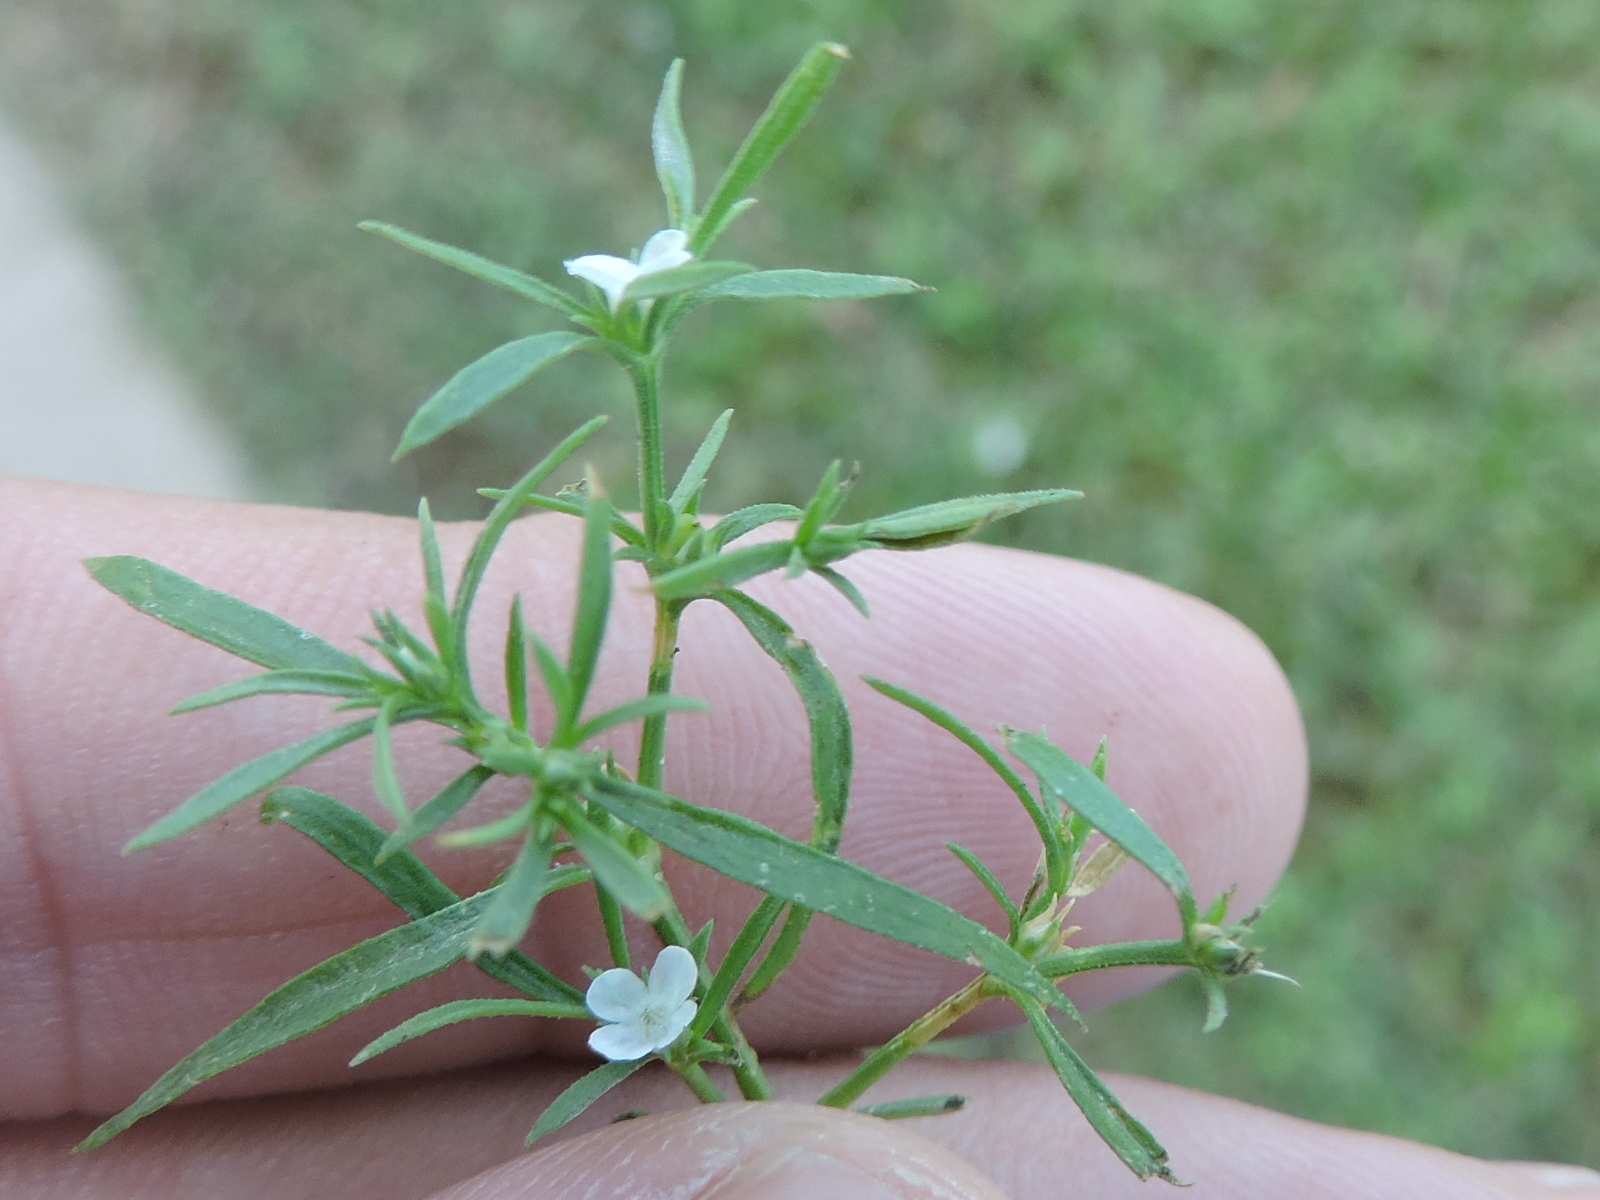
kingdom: Plantae
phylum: Tracheophyta
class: Magnoliopsida
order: Lamiales
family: Tetrachondraceae
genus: Polypremum
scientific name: Polypremum procumbens
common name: Juniper-leaf
